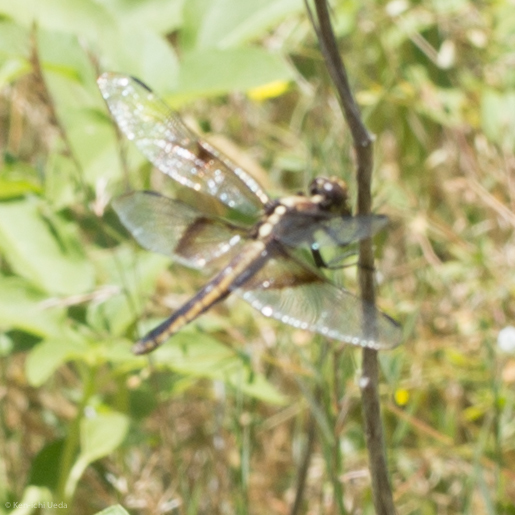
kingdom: Animalia
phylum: Arthropoda
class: Insecta
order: Odonata
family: Libellulidae
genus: Libellula
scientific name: Libellula luctuosa
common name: Widow skimmer
